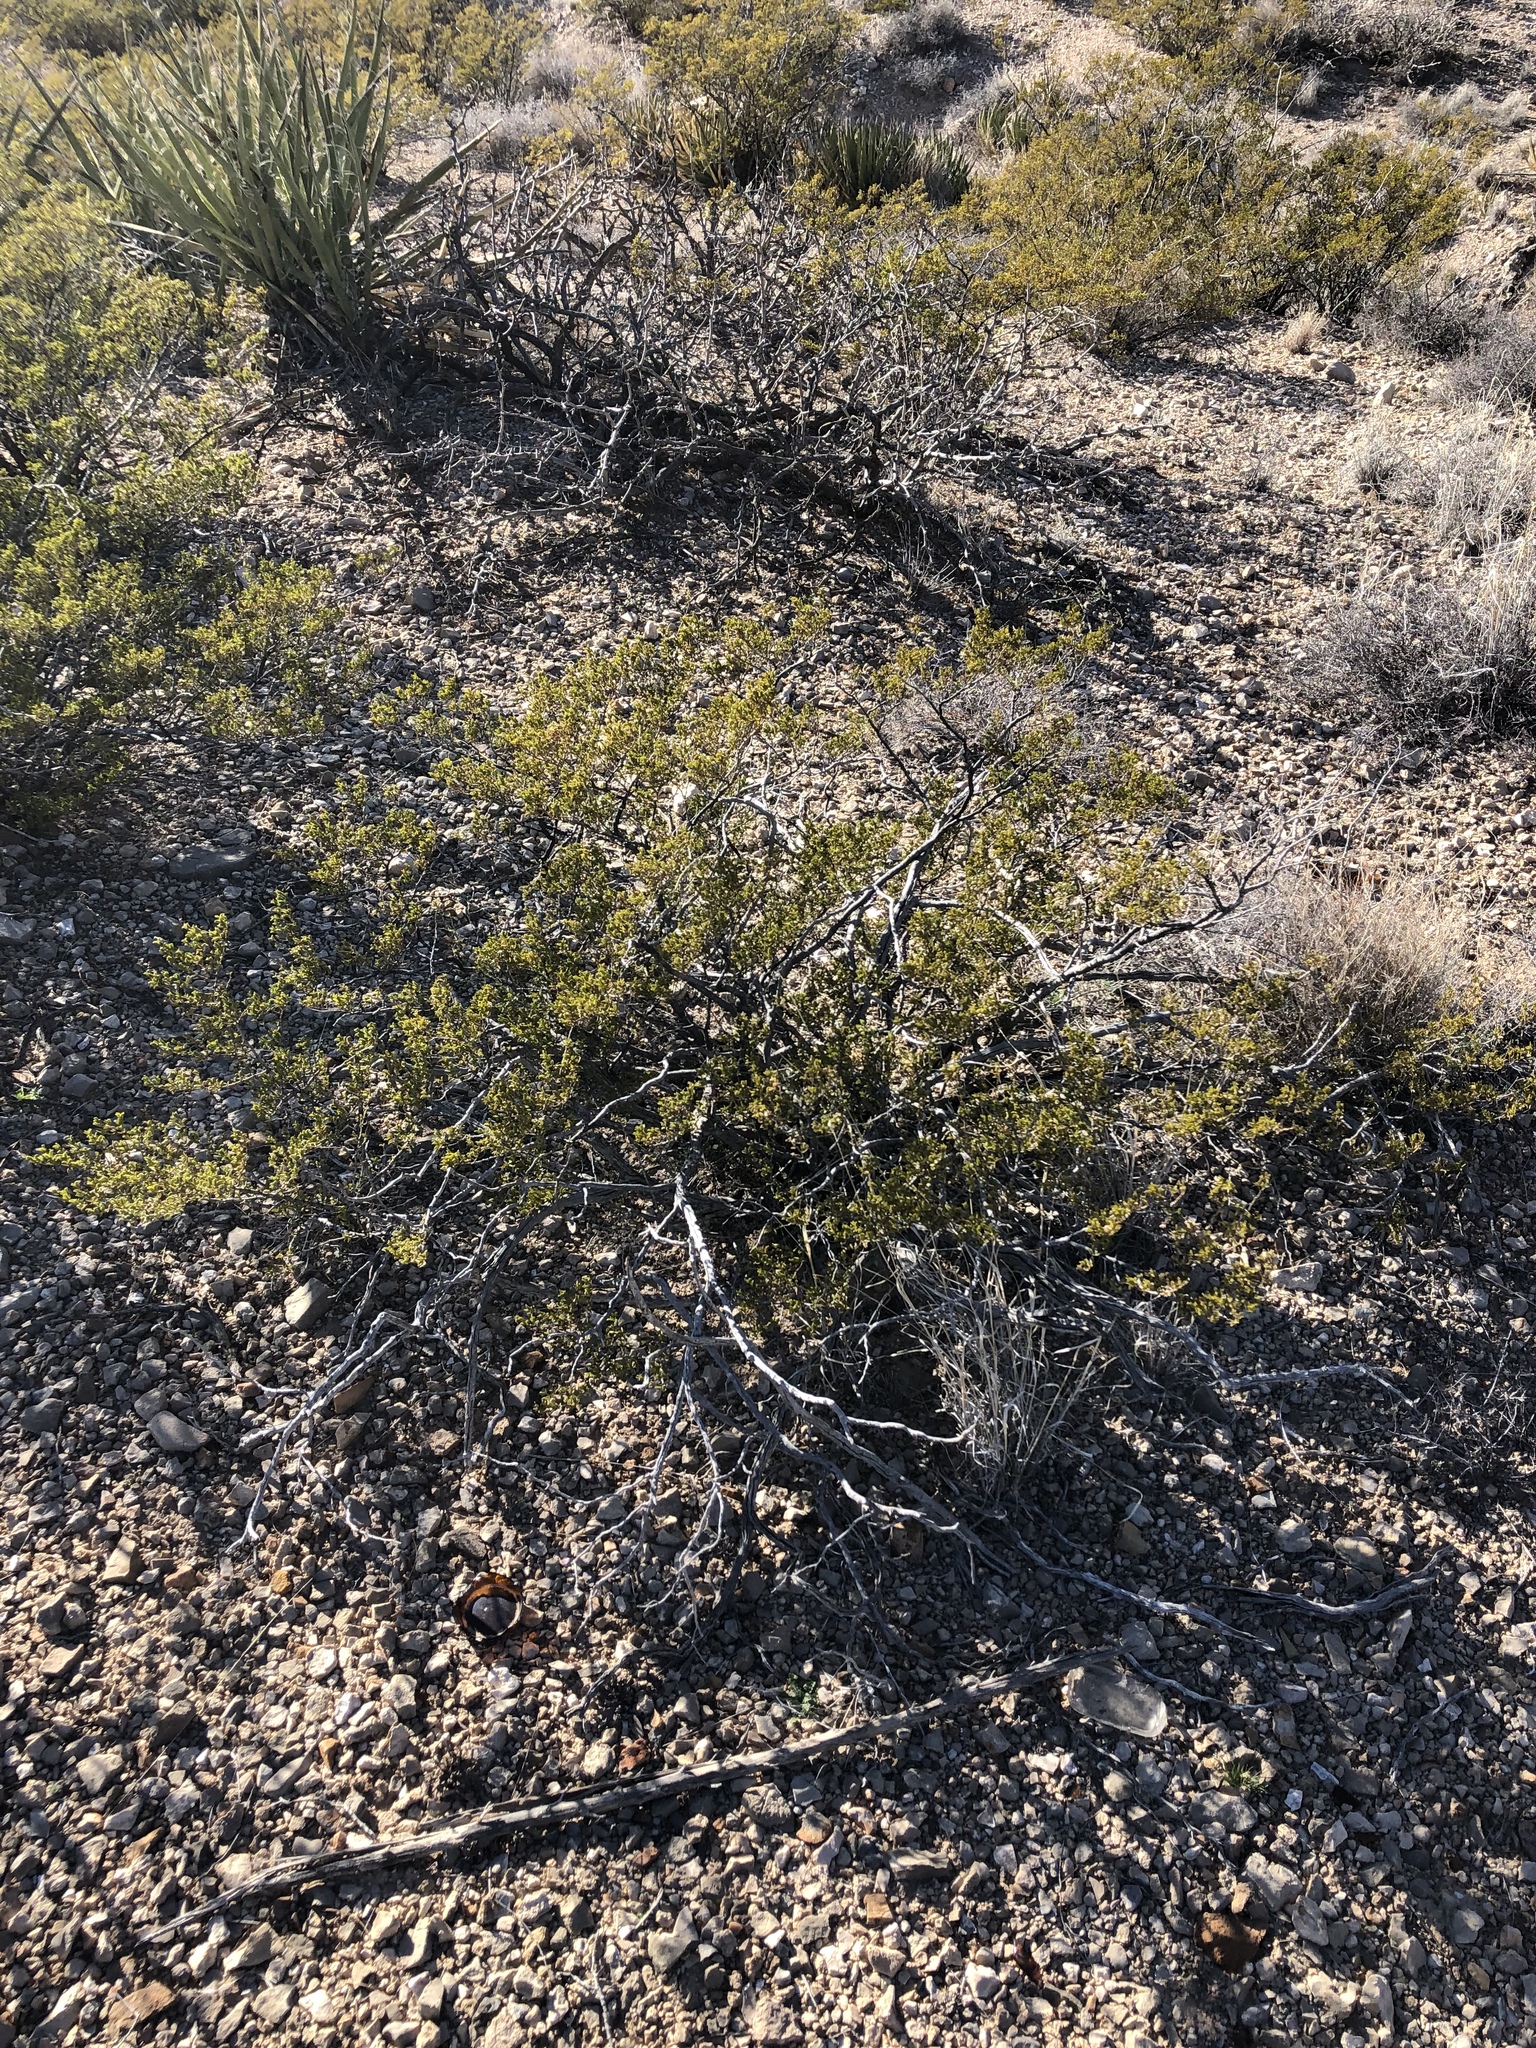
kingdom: Plantae
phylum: Tracheophyta
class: Magnoliopsida
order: Zygophyllales
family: Zygophyllaceae
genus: Larrea
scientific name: Larrea tridentata
